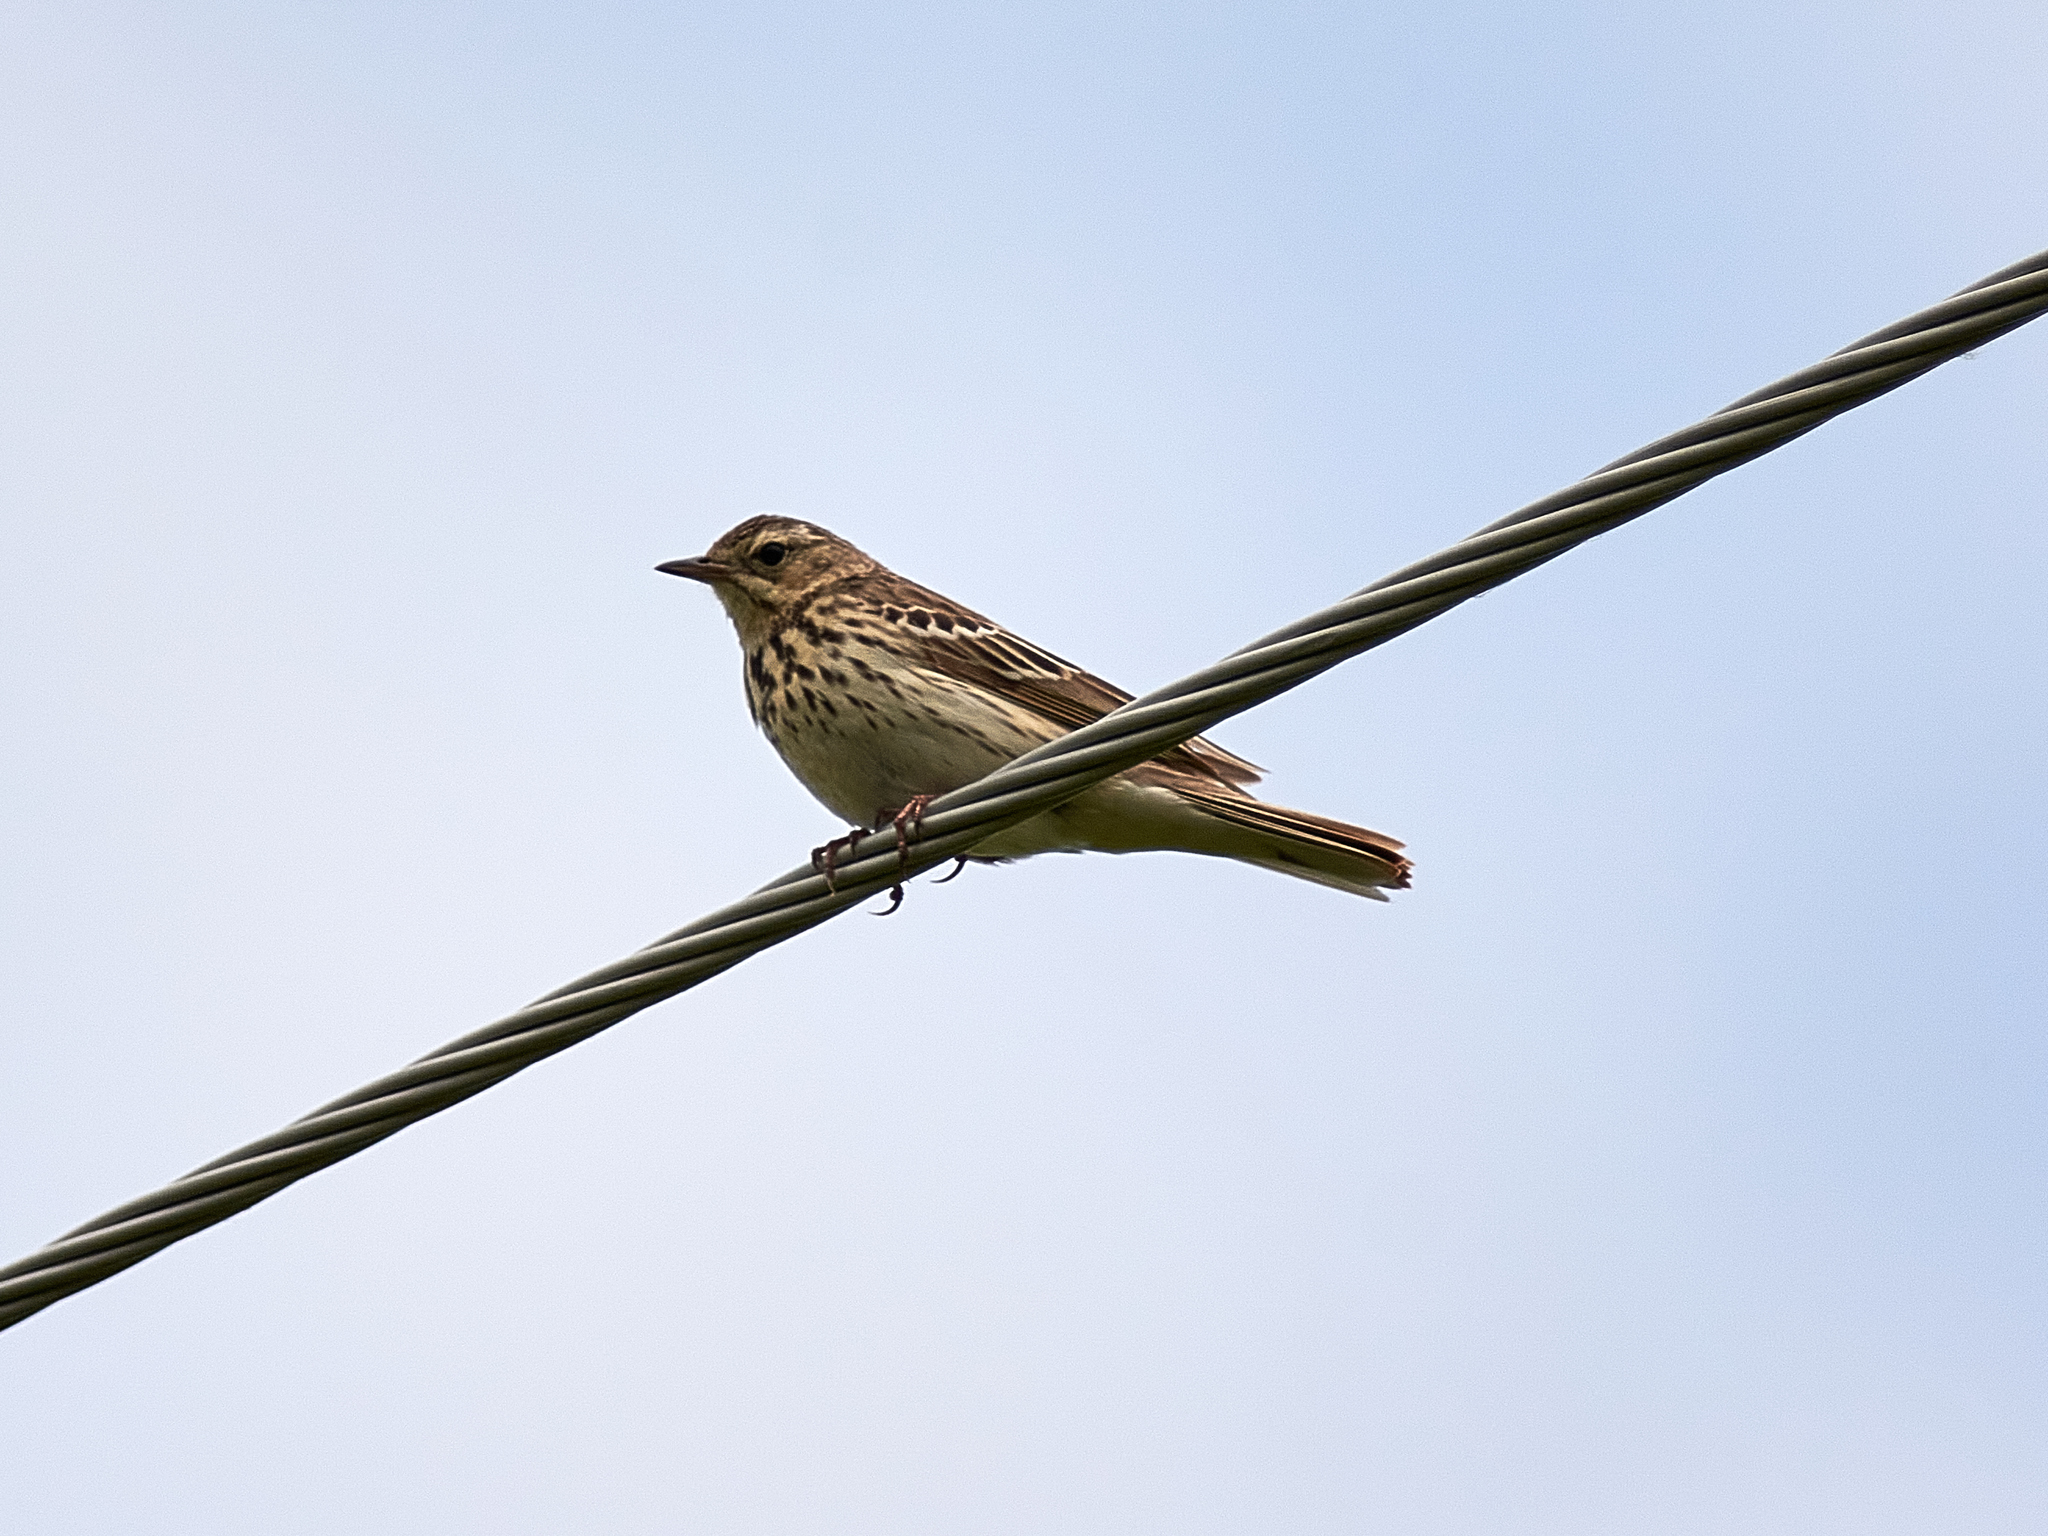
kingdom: Animalia
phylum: Chordata
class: Aves
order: Passeriformes
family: Motacillidae
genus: Anthus
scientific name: Anthus trivialis
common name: Tree pipit
